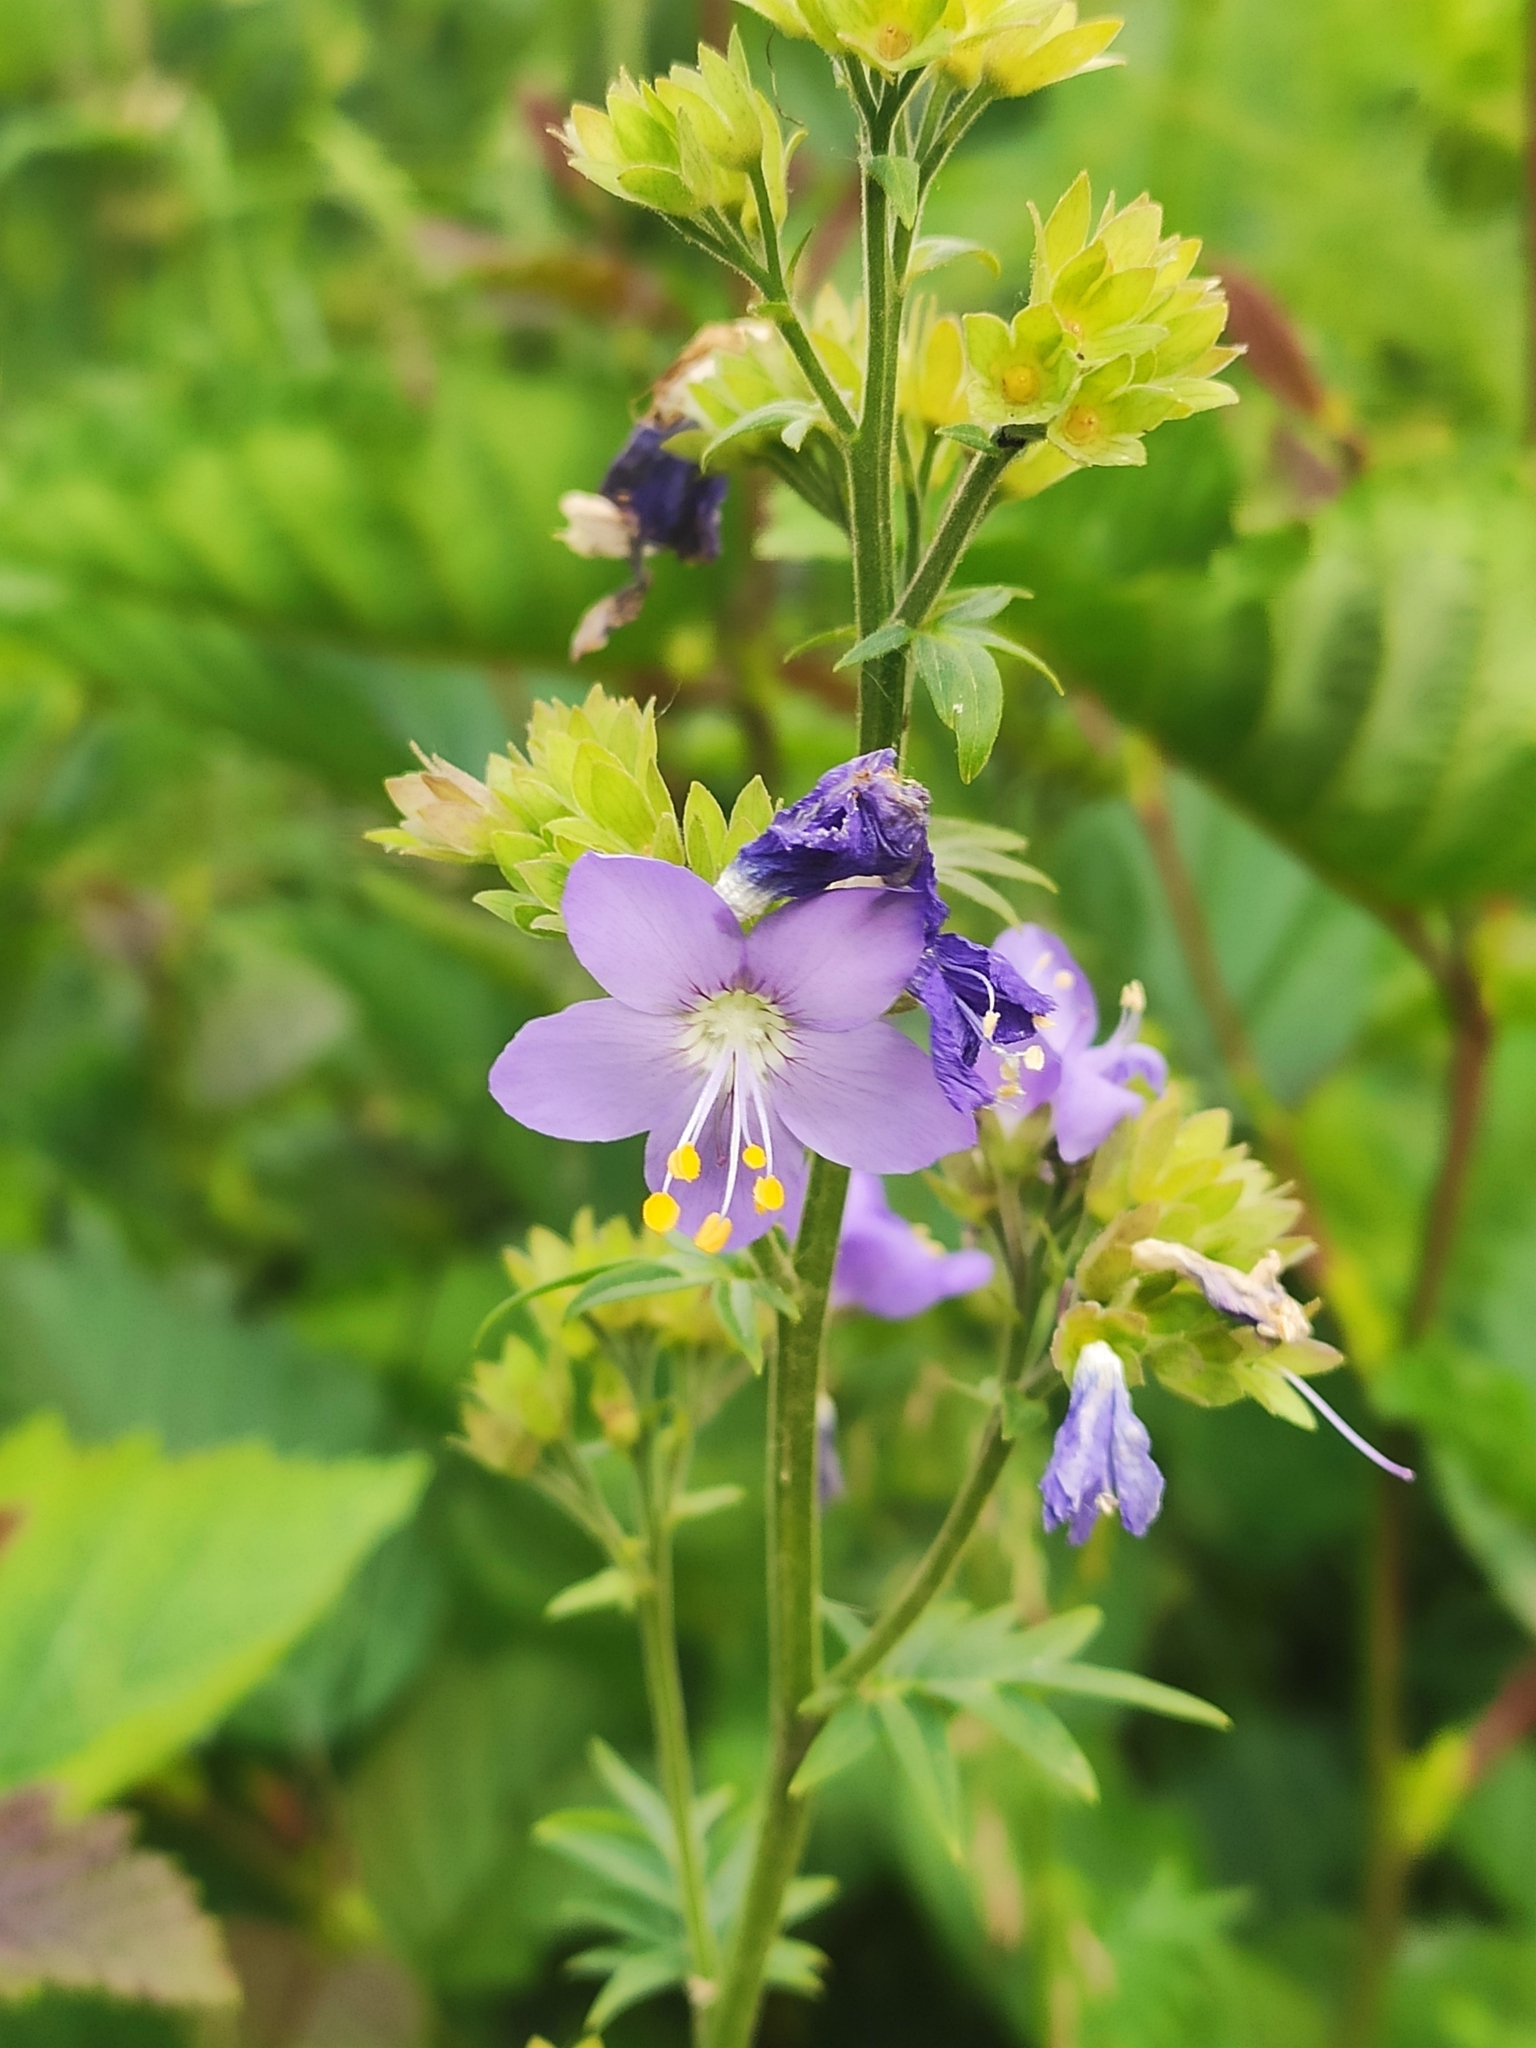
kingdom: Plantae
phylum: Tracheophyta
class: Magnoliopsida
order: Ericales
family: Polemoniaceae
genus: Polemonium
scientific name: Polemonium caeruleum
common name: Jacob's-ladder
